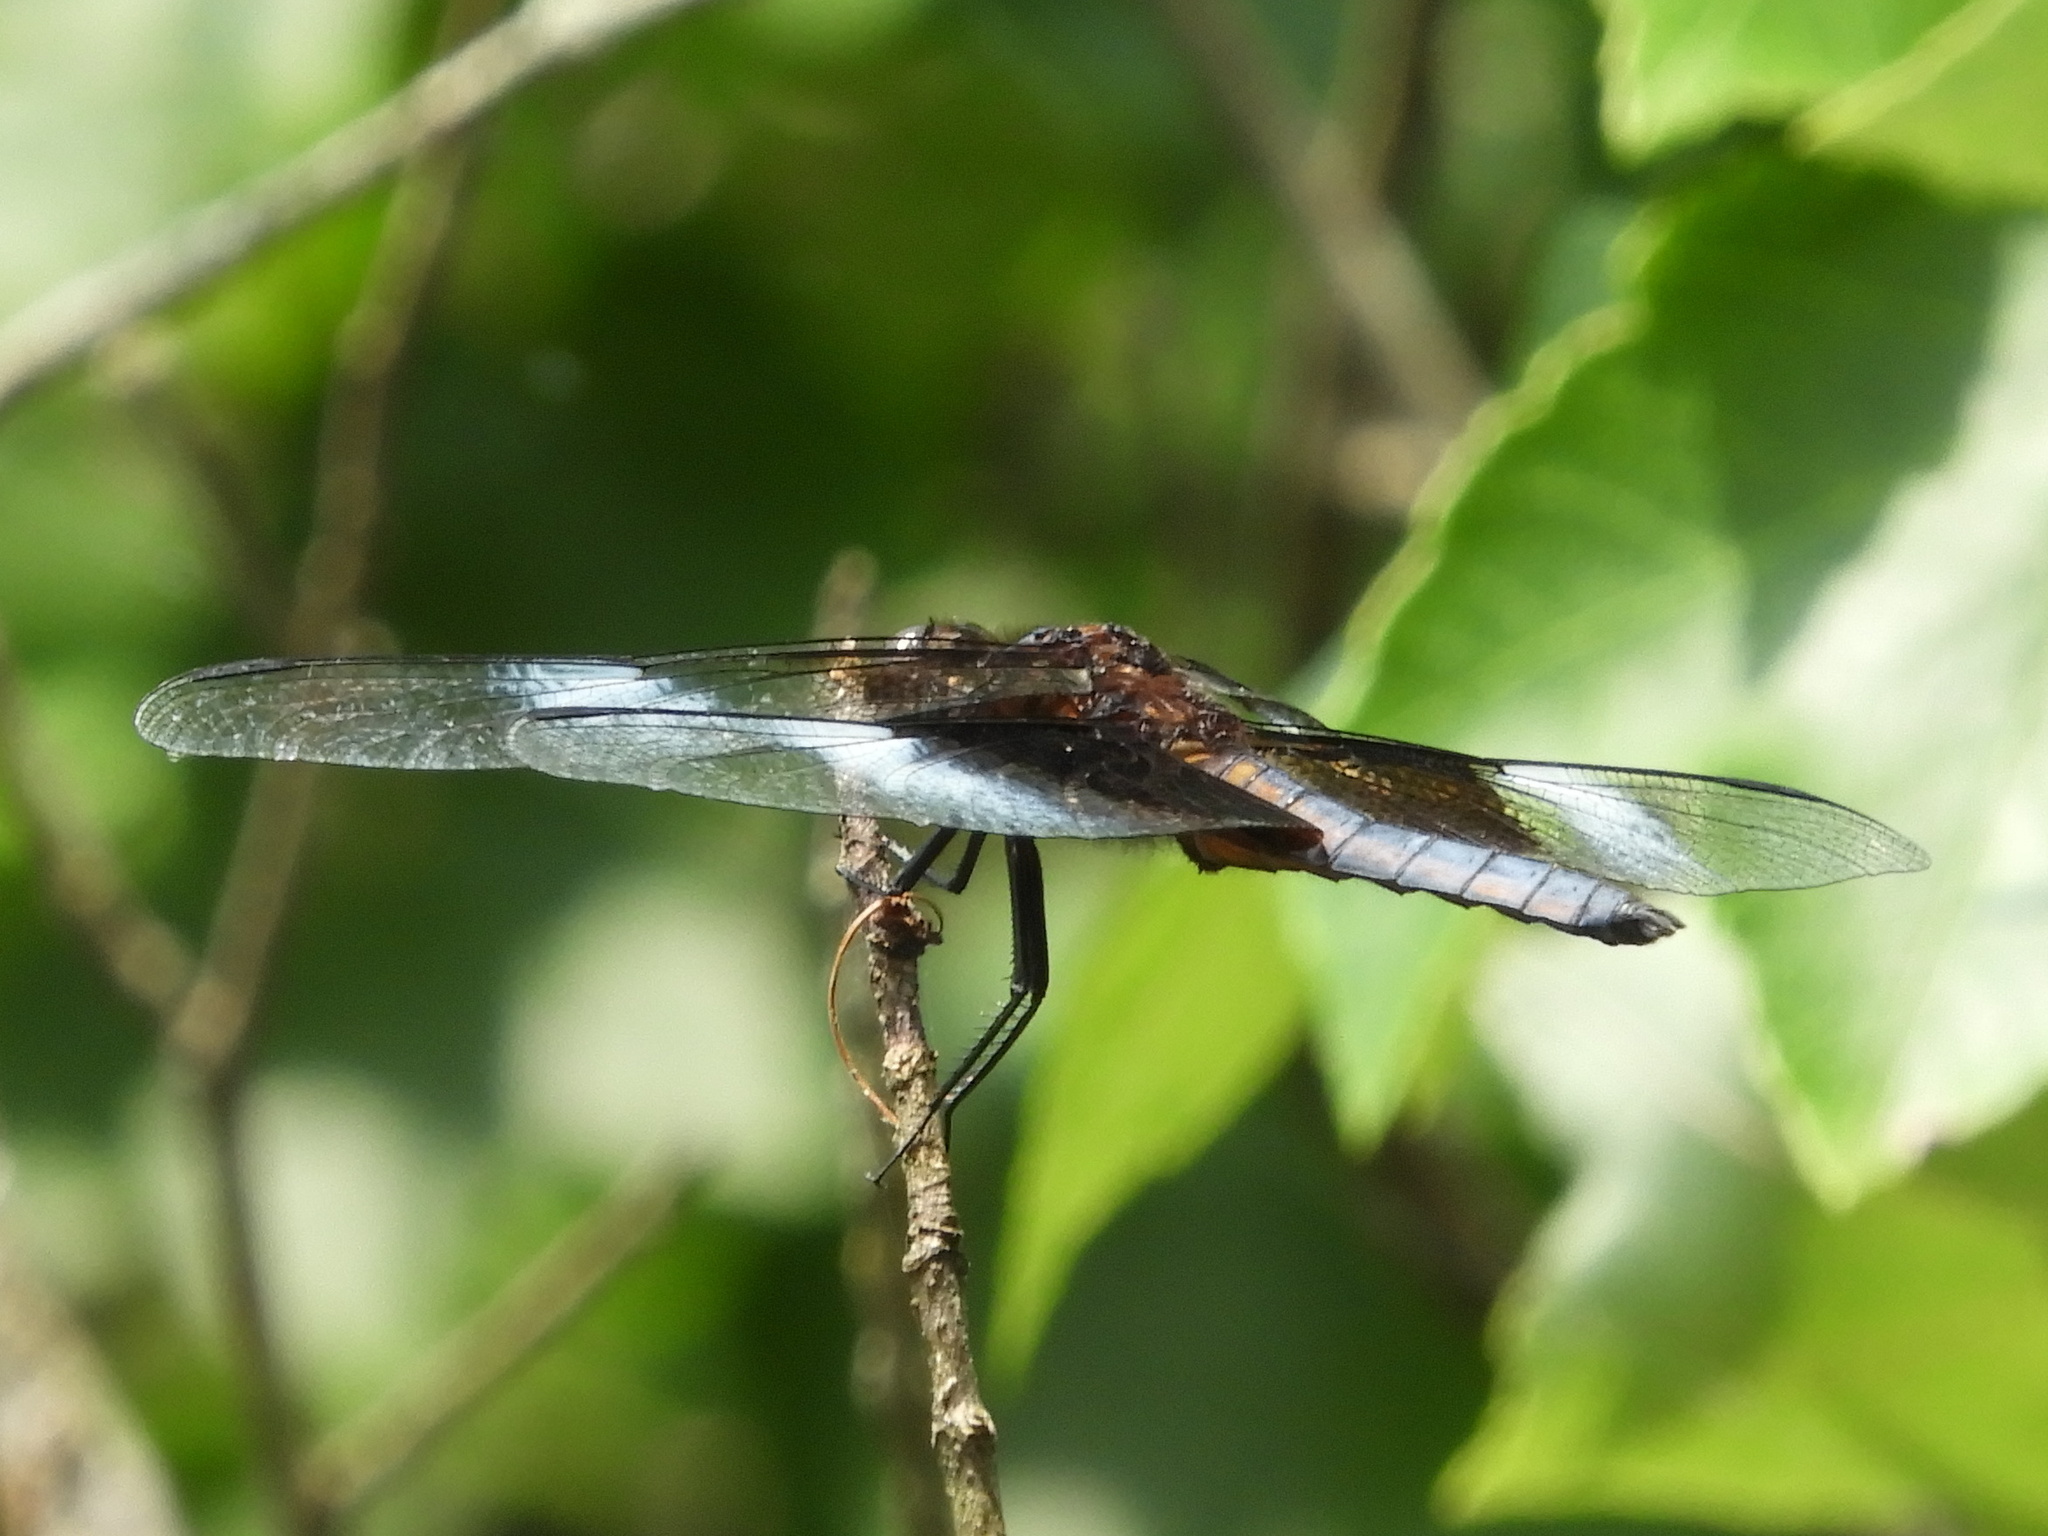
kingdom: Animalia
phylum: Arthropoda
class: Insecta
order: Odonata
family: Libellulidae
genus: Libellula
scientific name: Libellula luctuosa
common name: Widow skimmer
